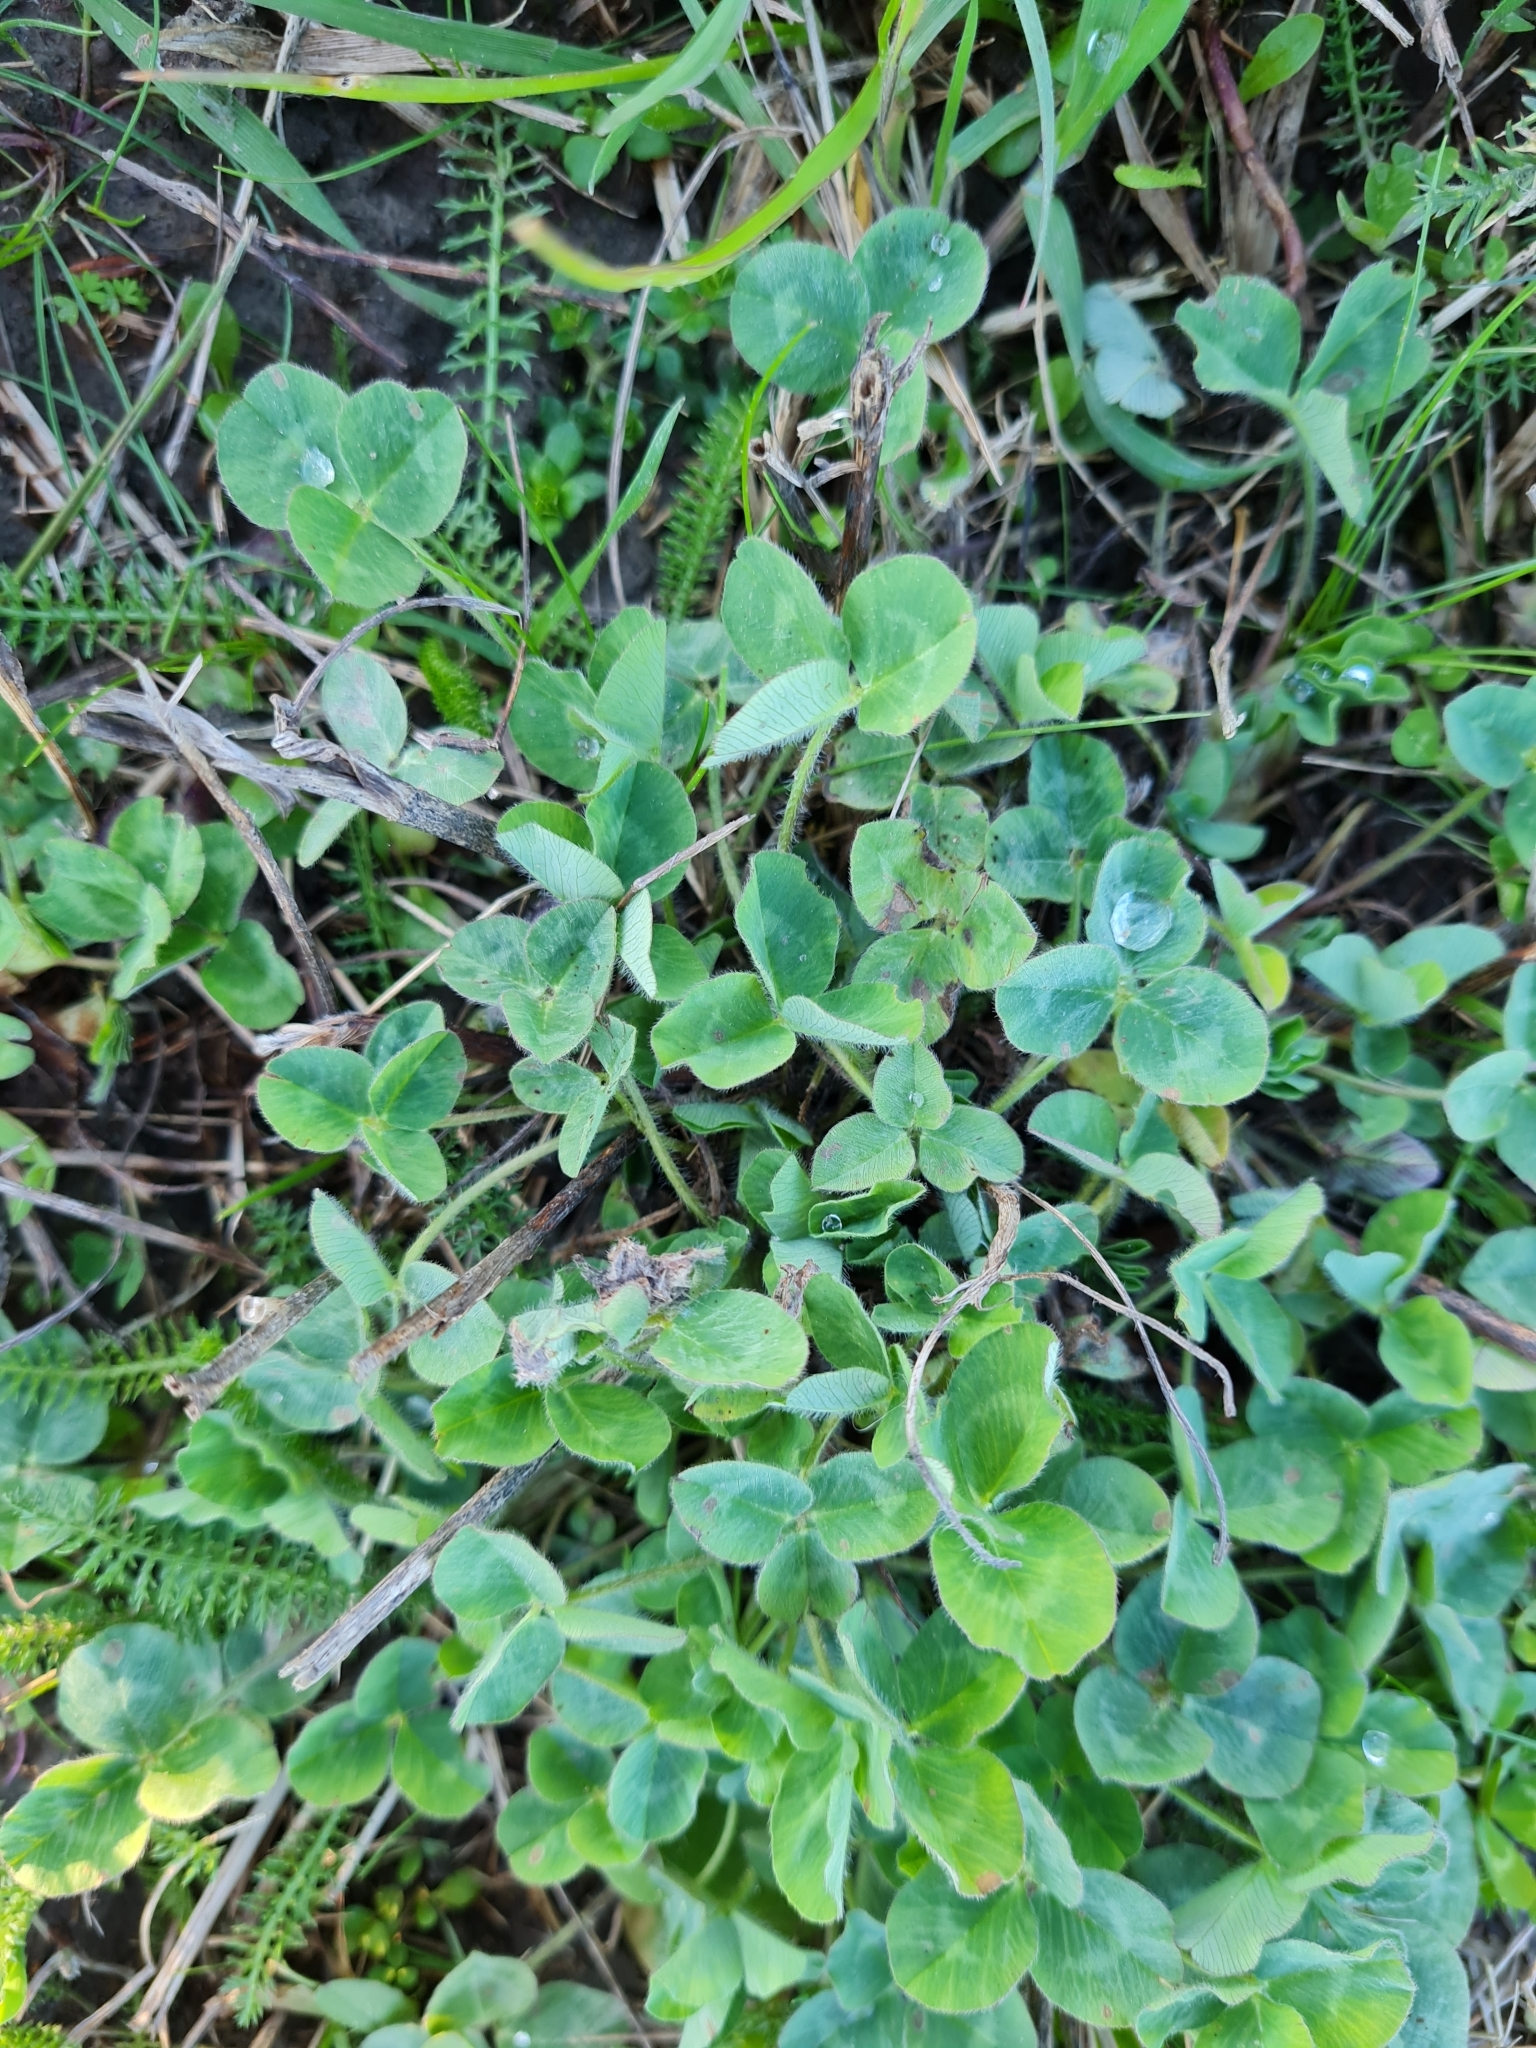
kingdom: Plantae
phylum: Tracheophyta
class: Magnoliopsida
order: Fabales
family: Fabaceae
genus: Trifolium
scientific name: Trifolium repens
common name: White clover
